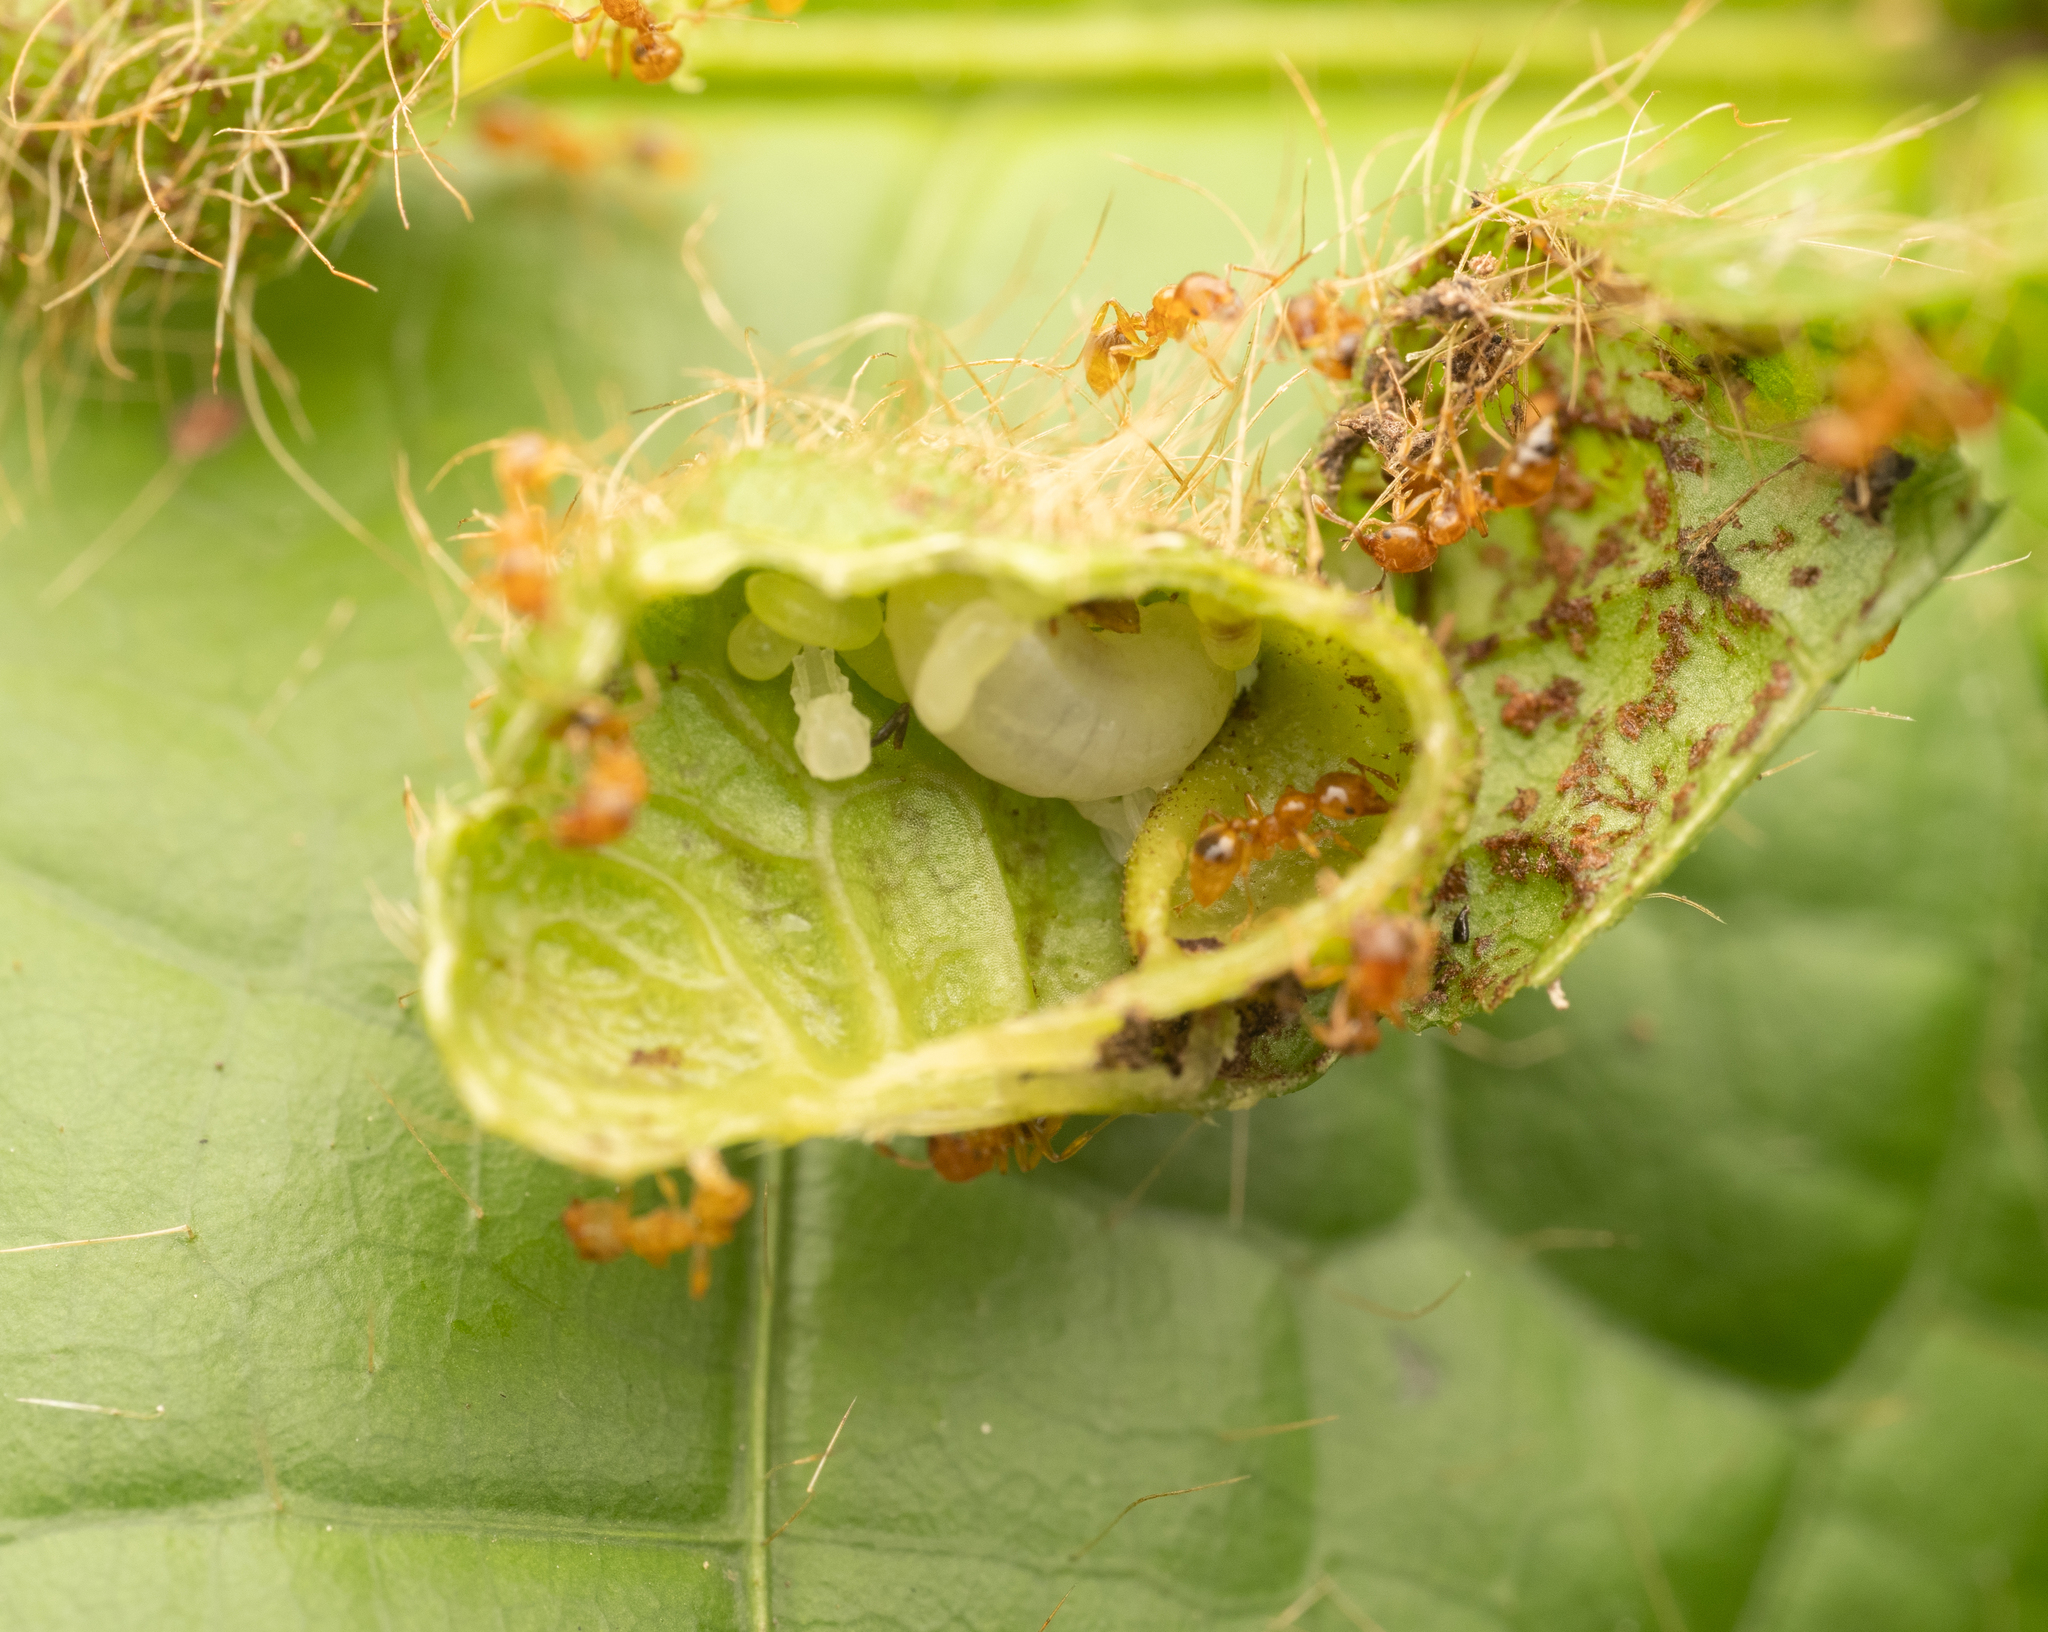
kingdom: Animalia
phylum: Arthropoda
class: Insecta
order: Hymenoptera
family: Formicidae
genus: Allomerus
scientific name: Allomerus octoarticulatus
